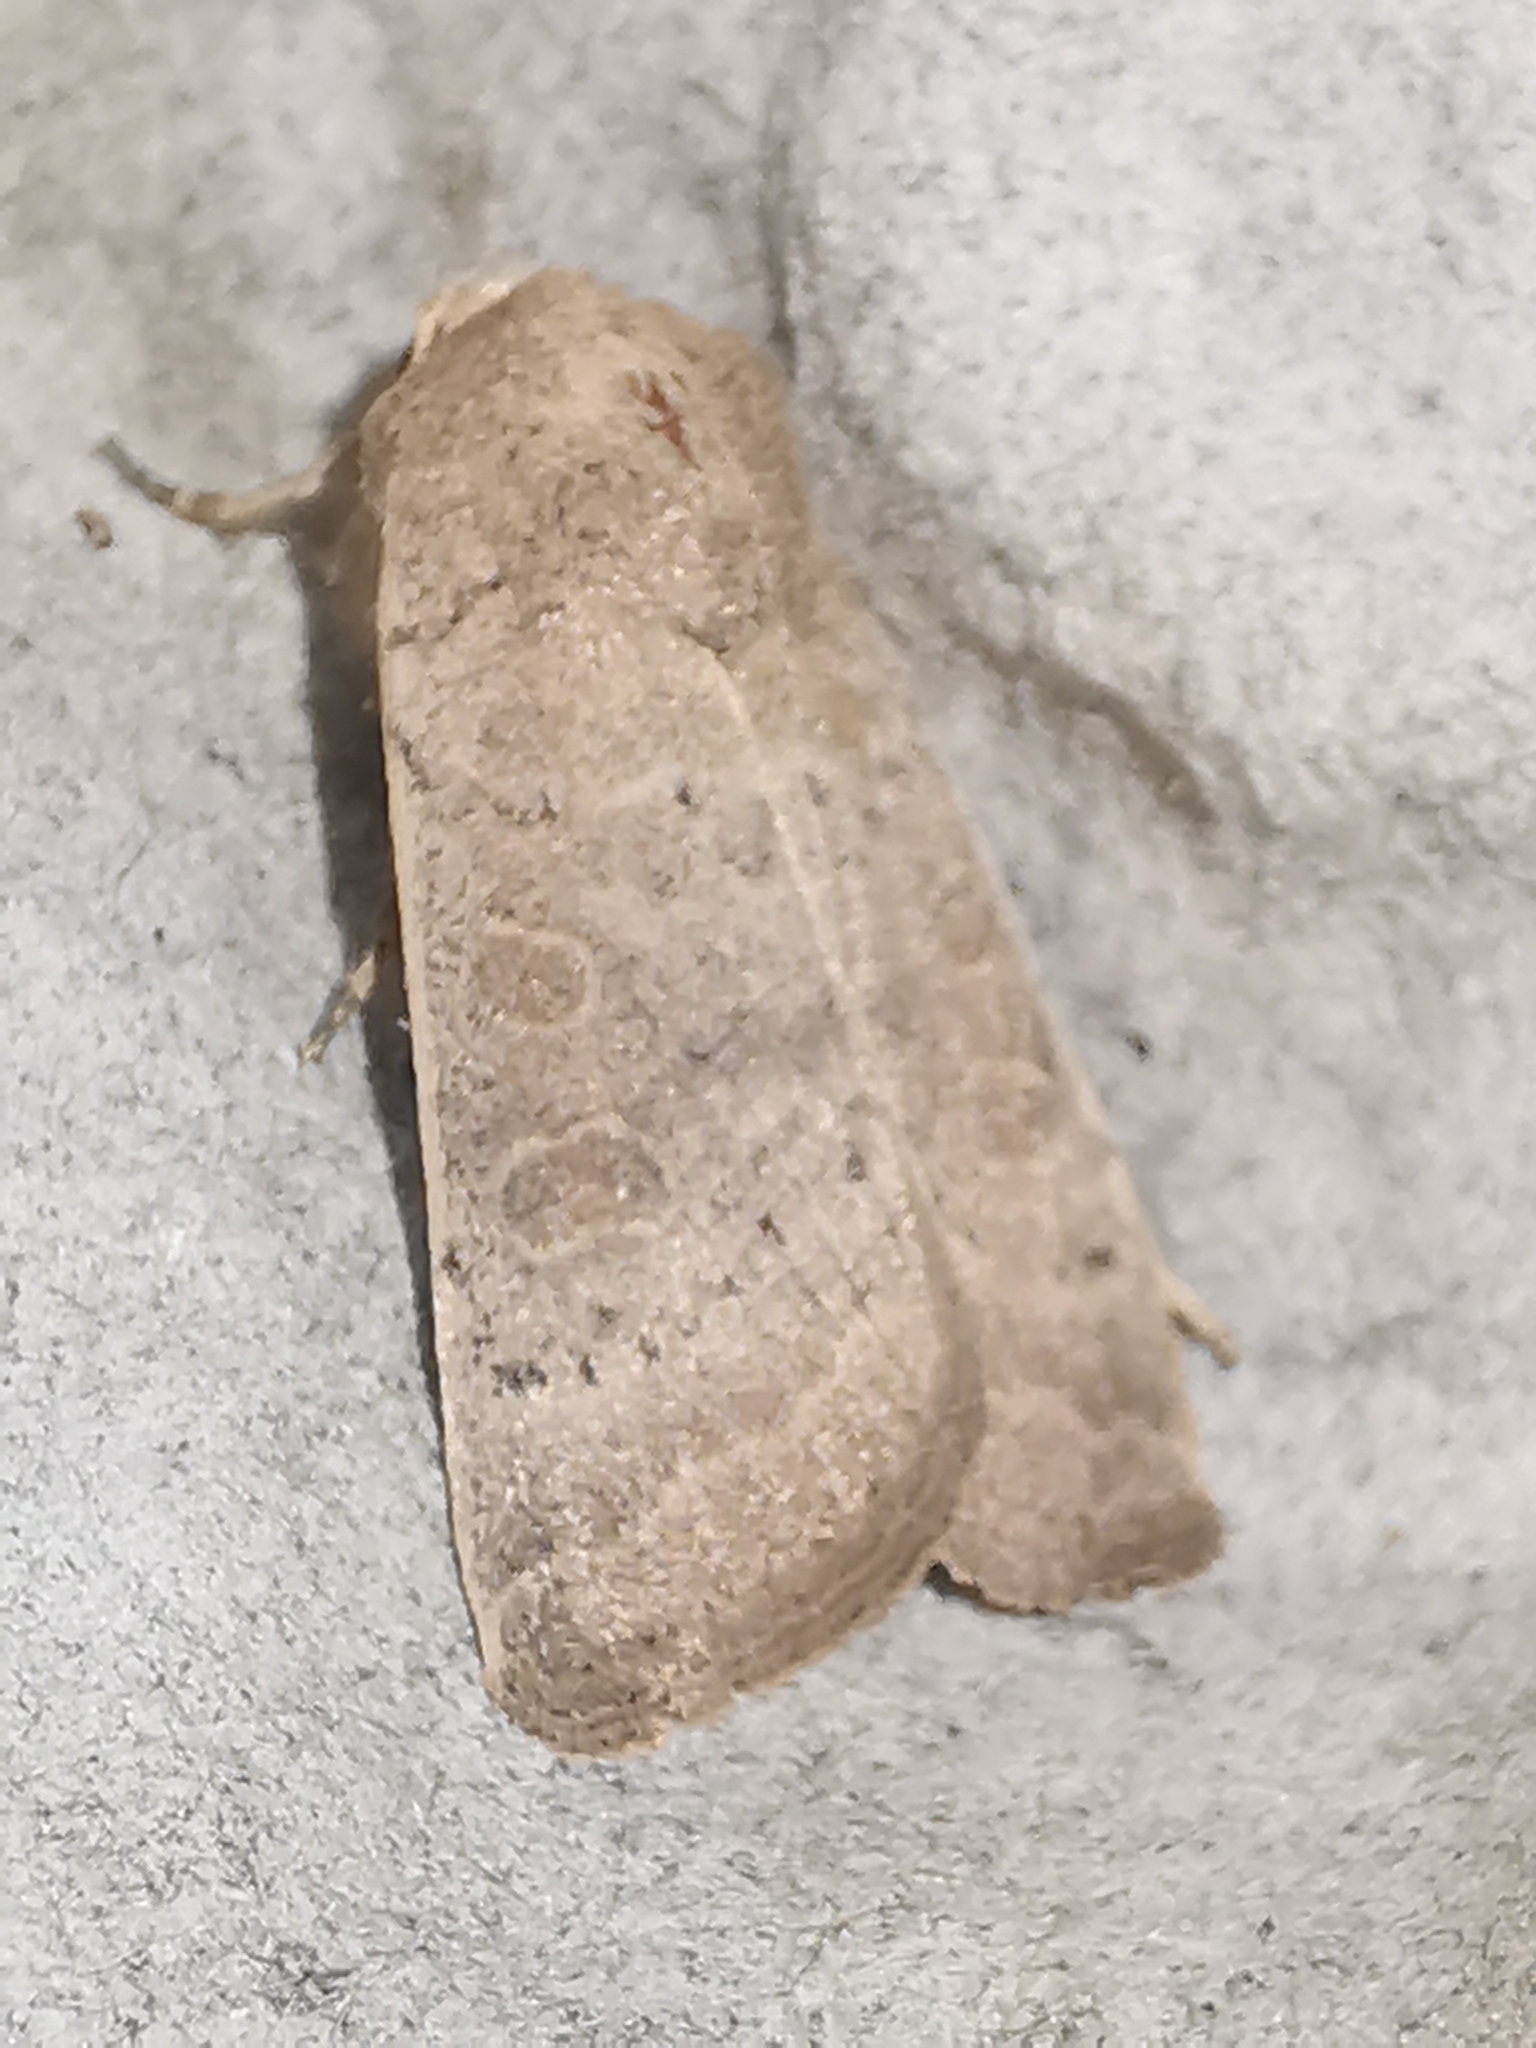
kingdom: Animalia
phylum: Arthropoda
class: Insecta
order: Lepidoptera
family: Noctuidae
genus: Hoplodrina
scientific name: Hoplodrina ambigua
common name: Vine's rustic
